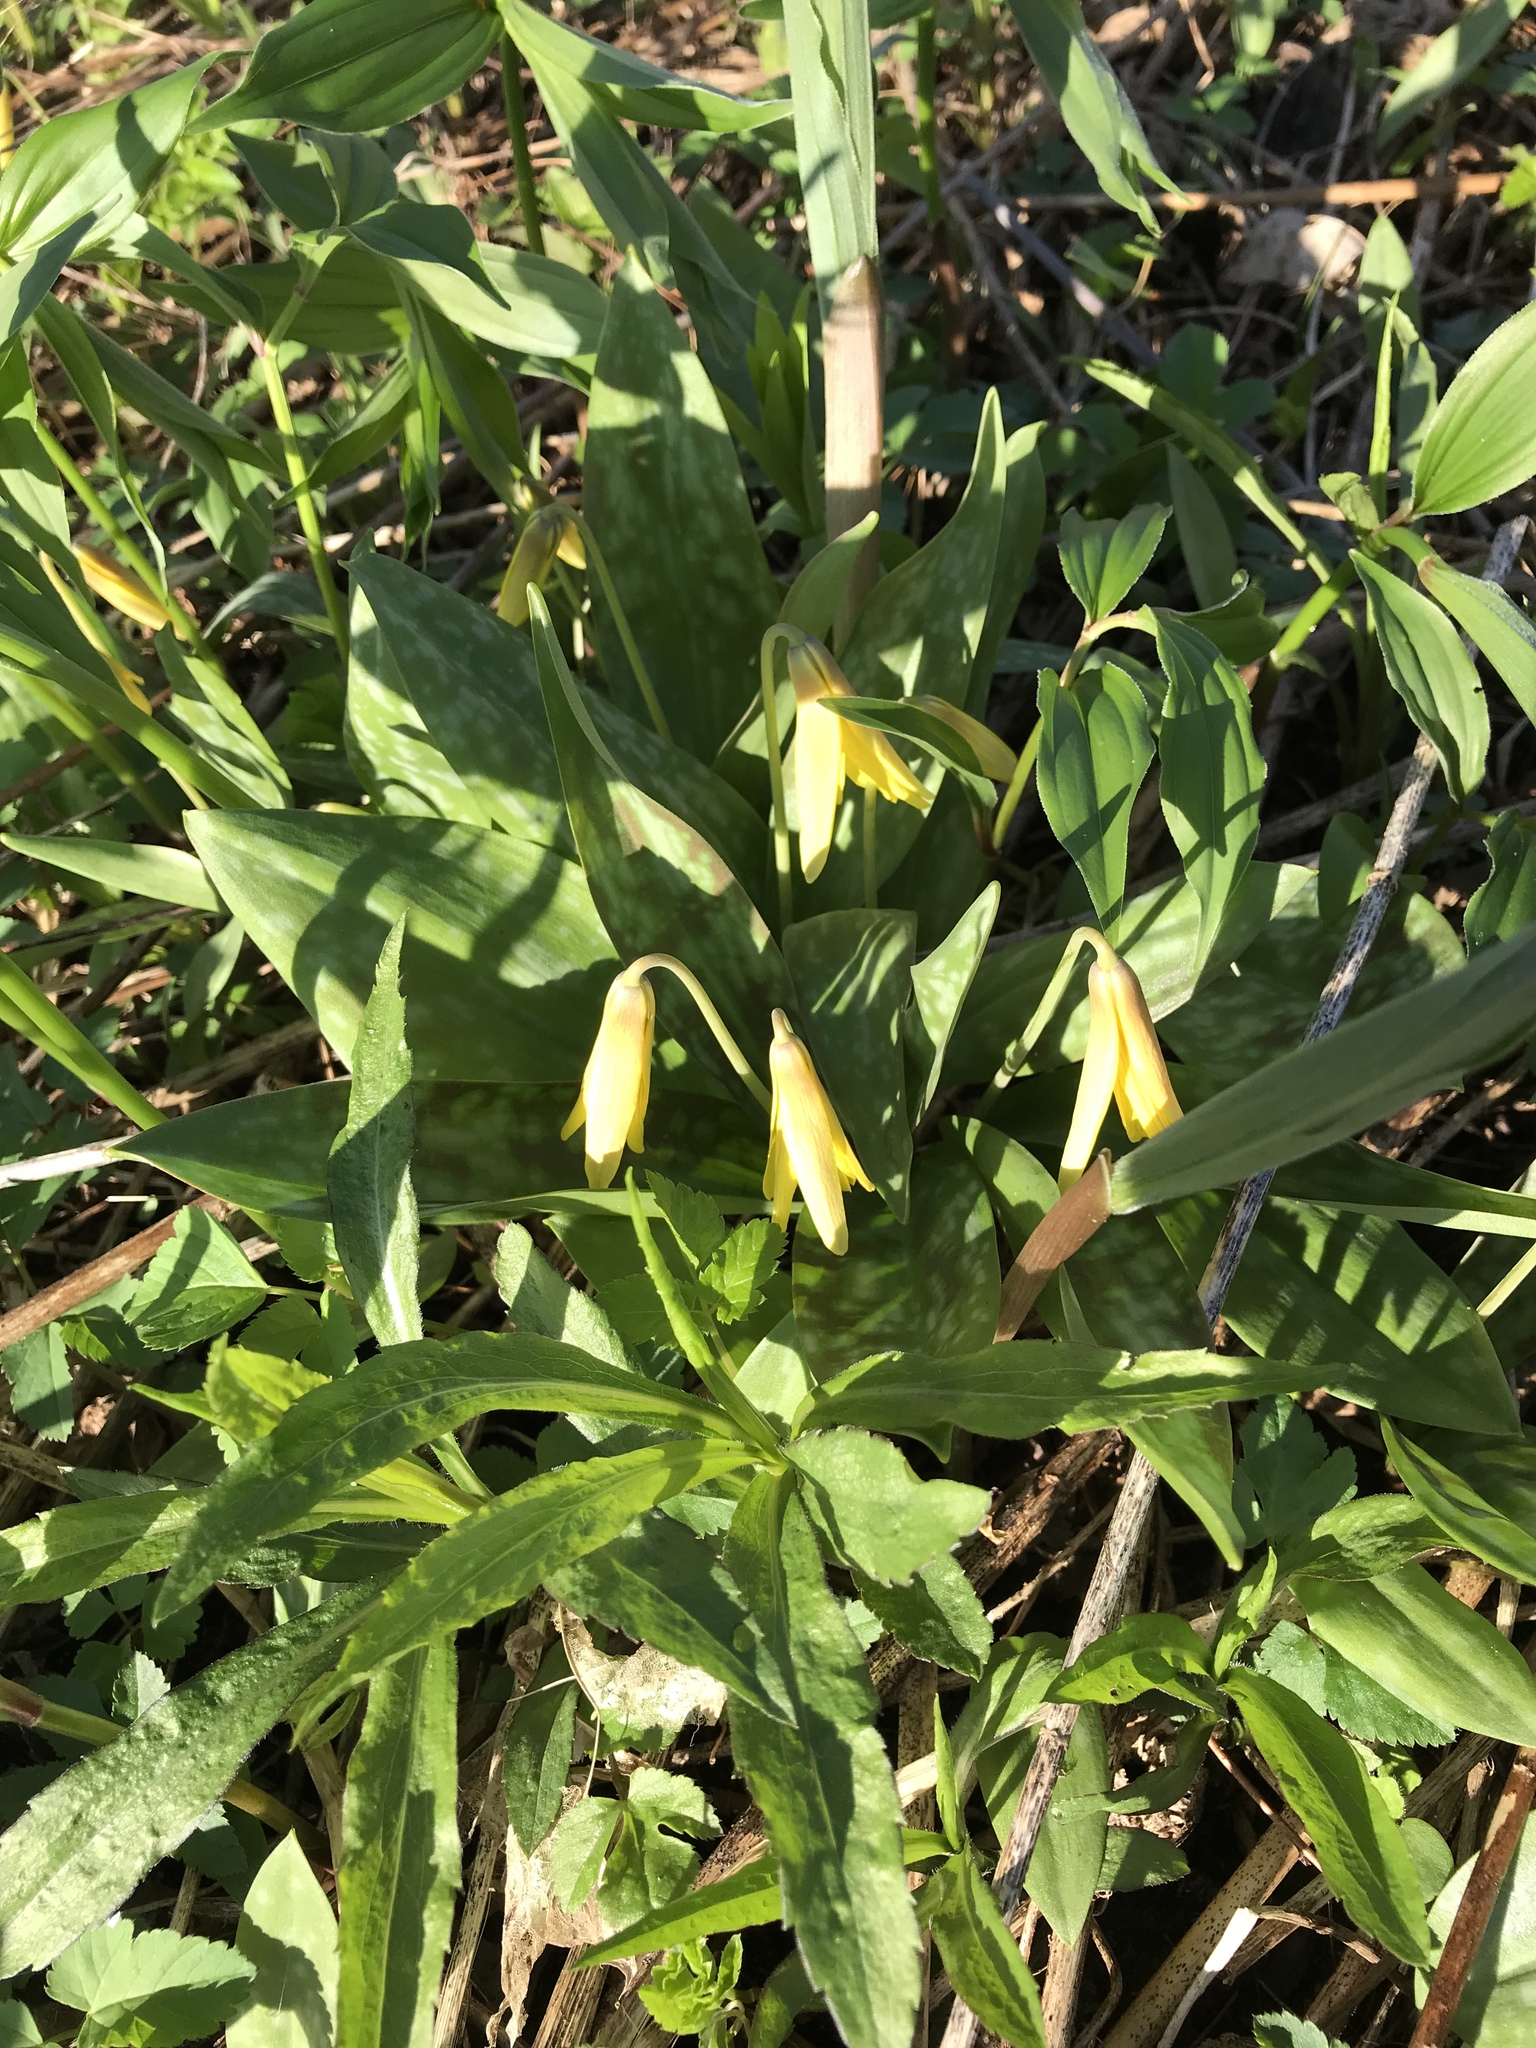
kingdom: Plantae
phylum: Tracheophyta
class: Liliopsida
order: Liliales
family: Liliaceae
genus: Erythronium
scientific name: Erythronium americanum
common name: Yellow adder's-tongue
